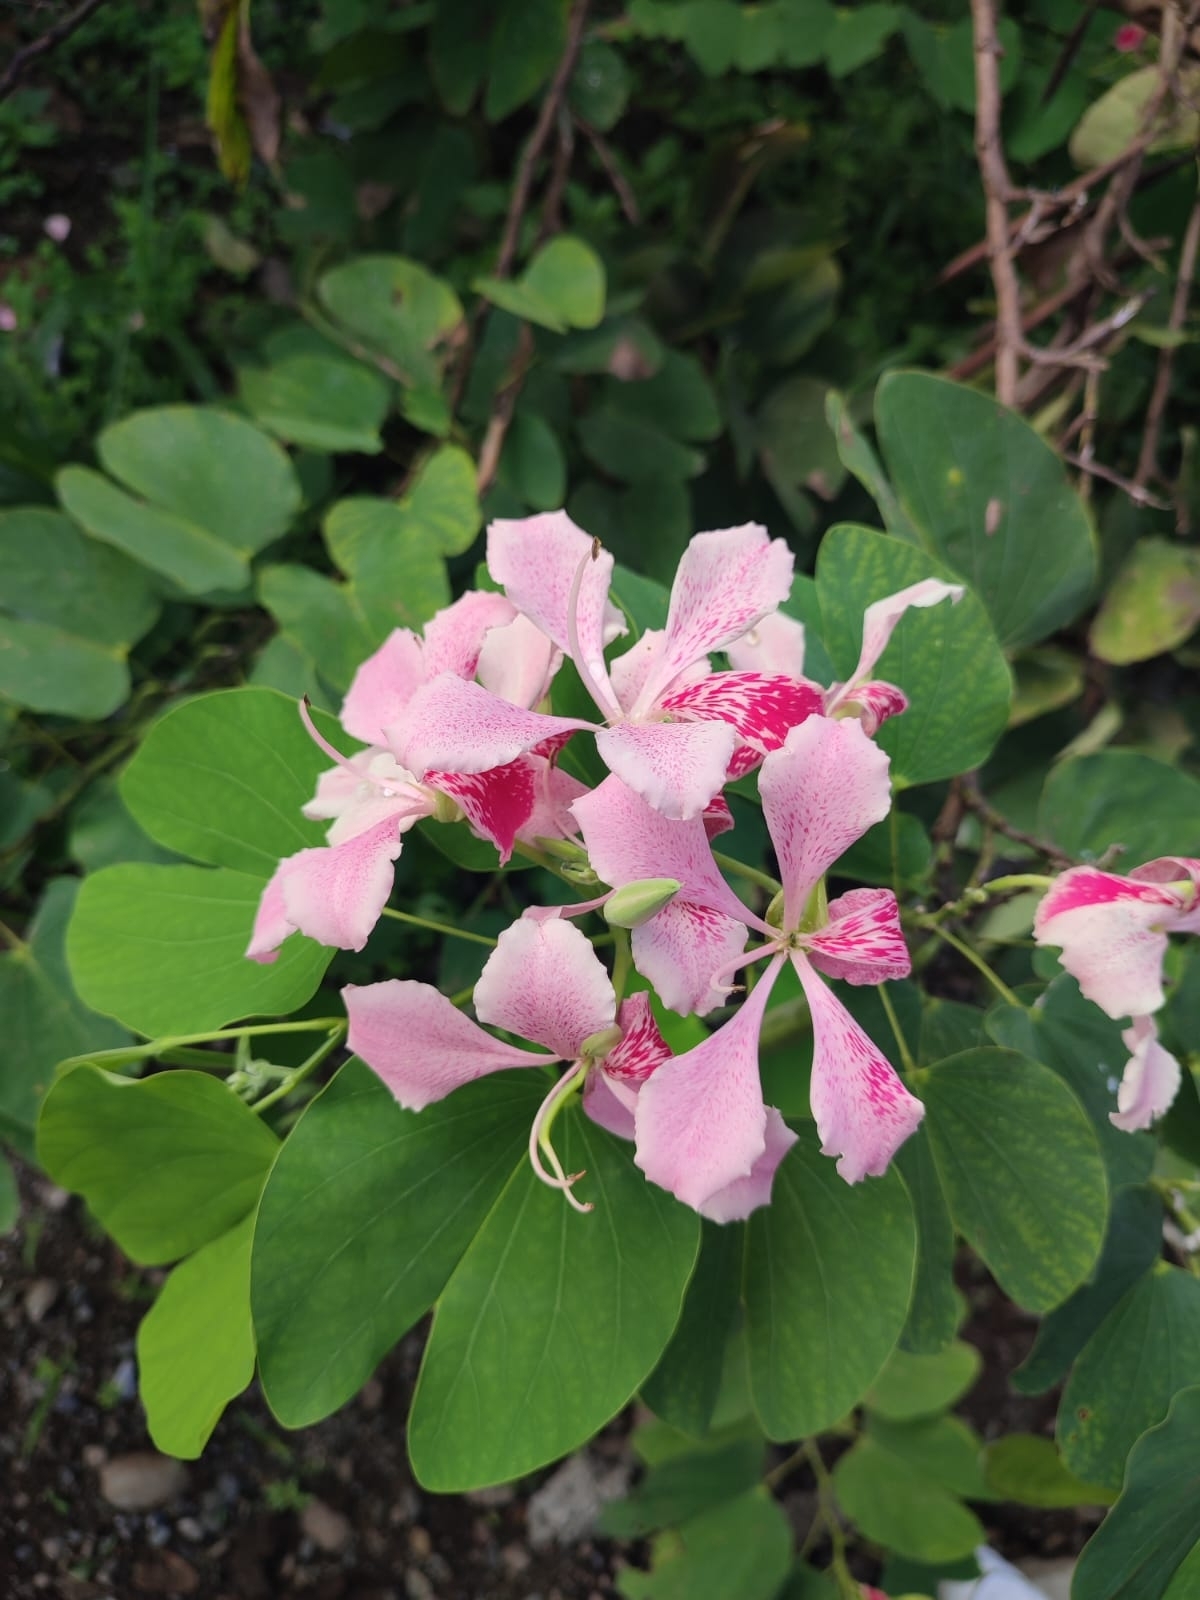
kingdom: Plantae
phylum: Tracheophyta
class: Magnoliopsida
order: Fabales
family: Fabaceae
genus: Bauhinia
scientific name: Bauhinia monandra
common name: Napoleon's plume
